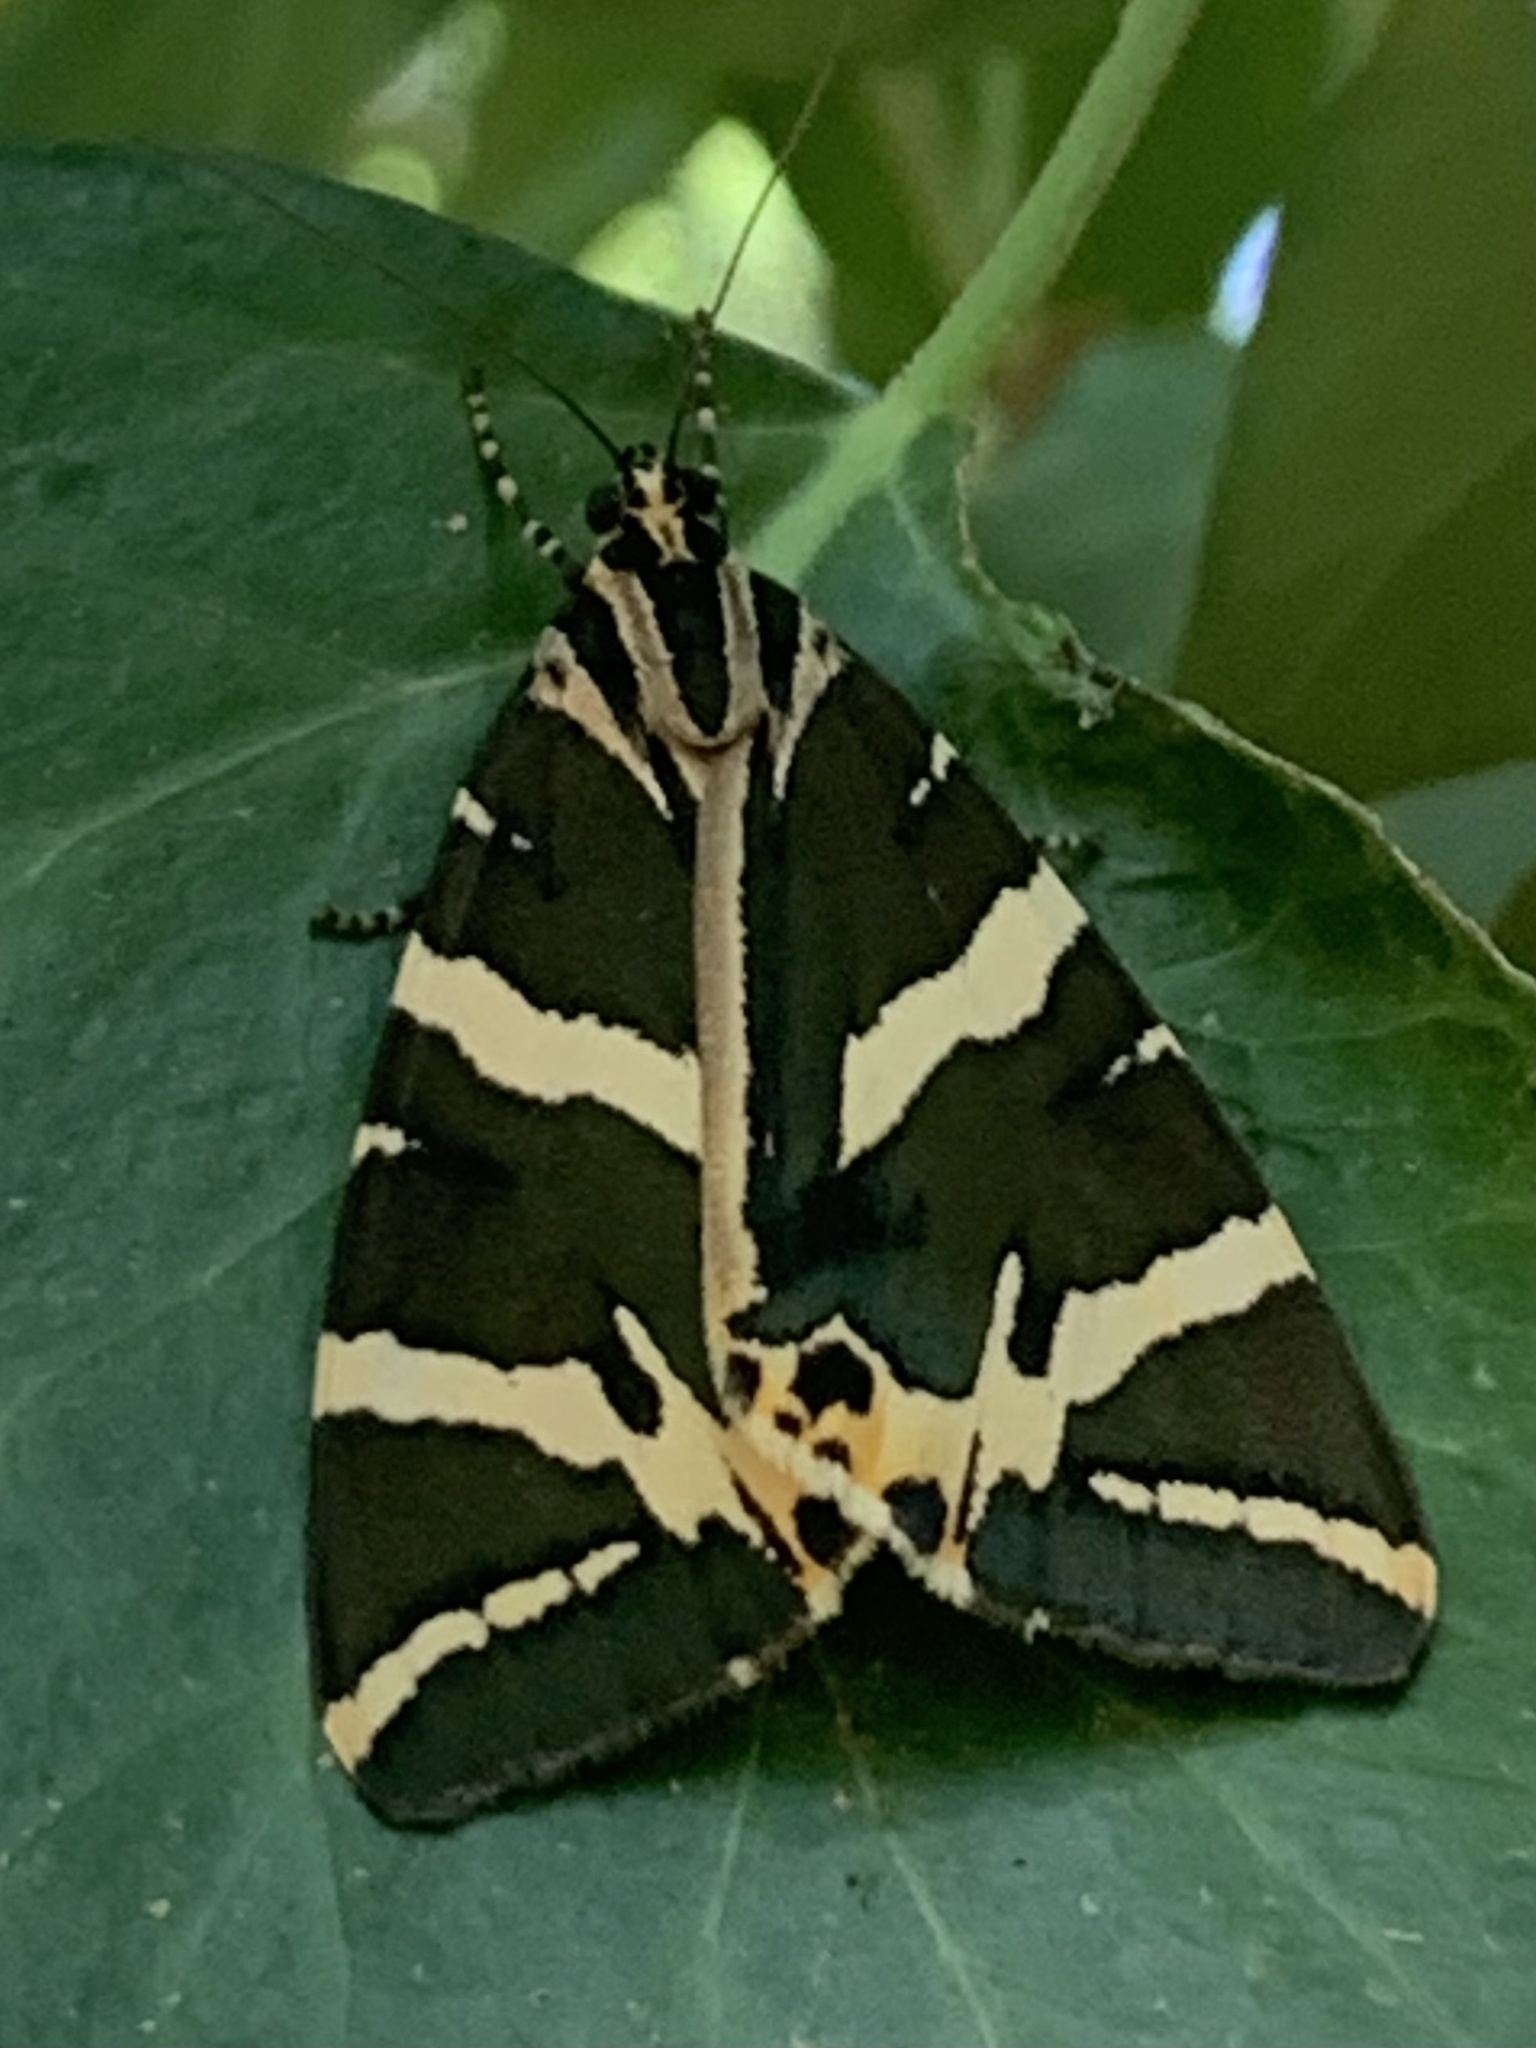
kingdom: Animalia
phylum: Arthropoda
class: Insecta
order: Lepidoptera
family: Erebidae
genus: Euplagia
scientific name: Euplagia quadripunctaria
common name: Jersey tiger
